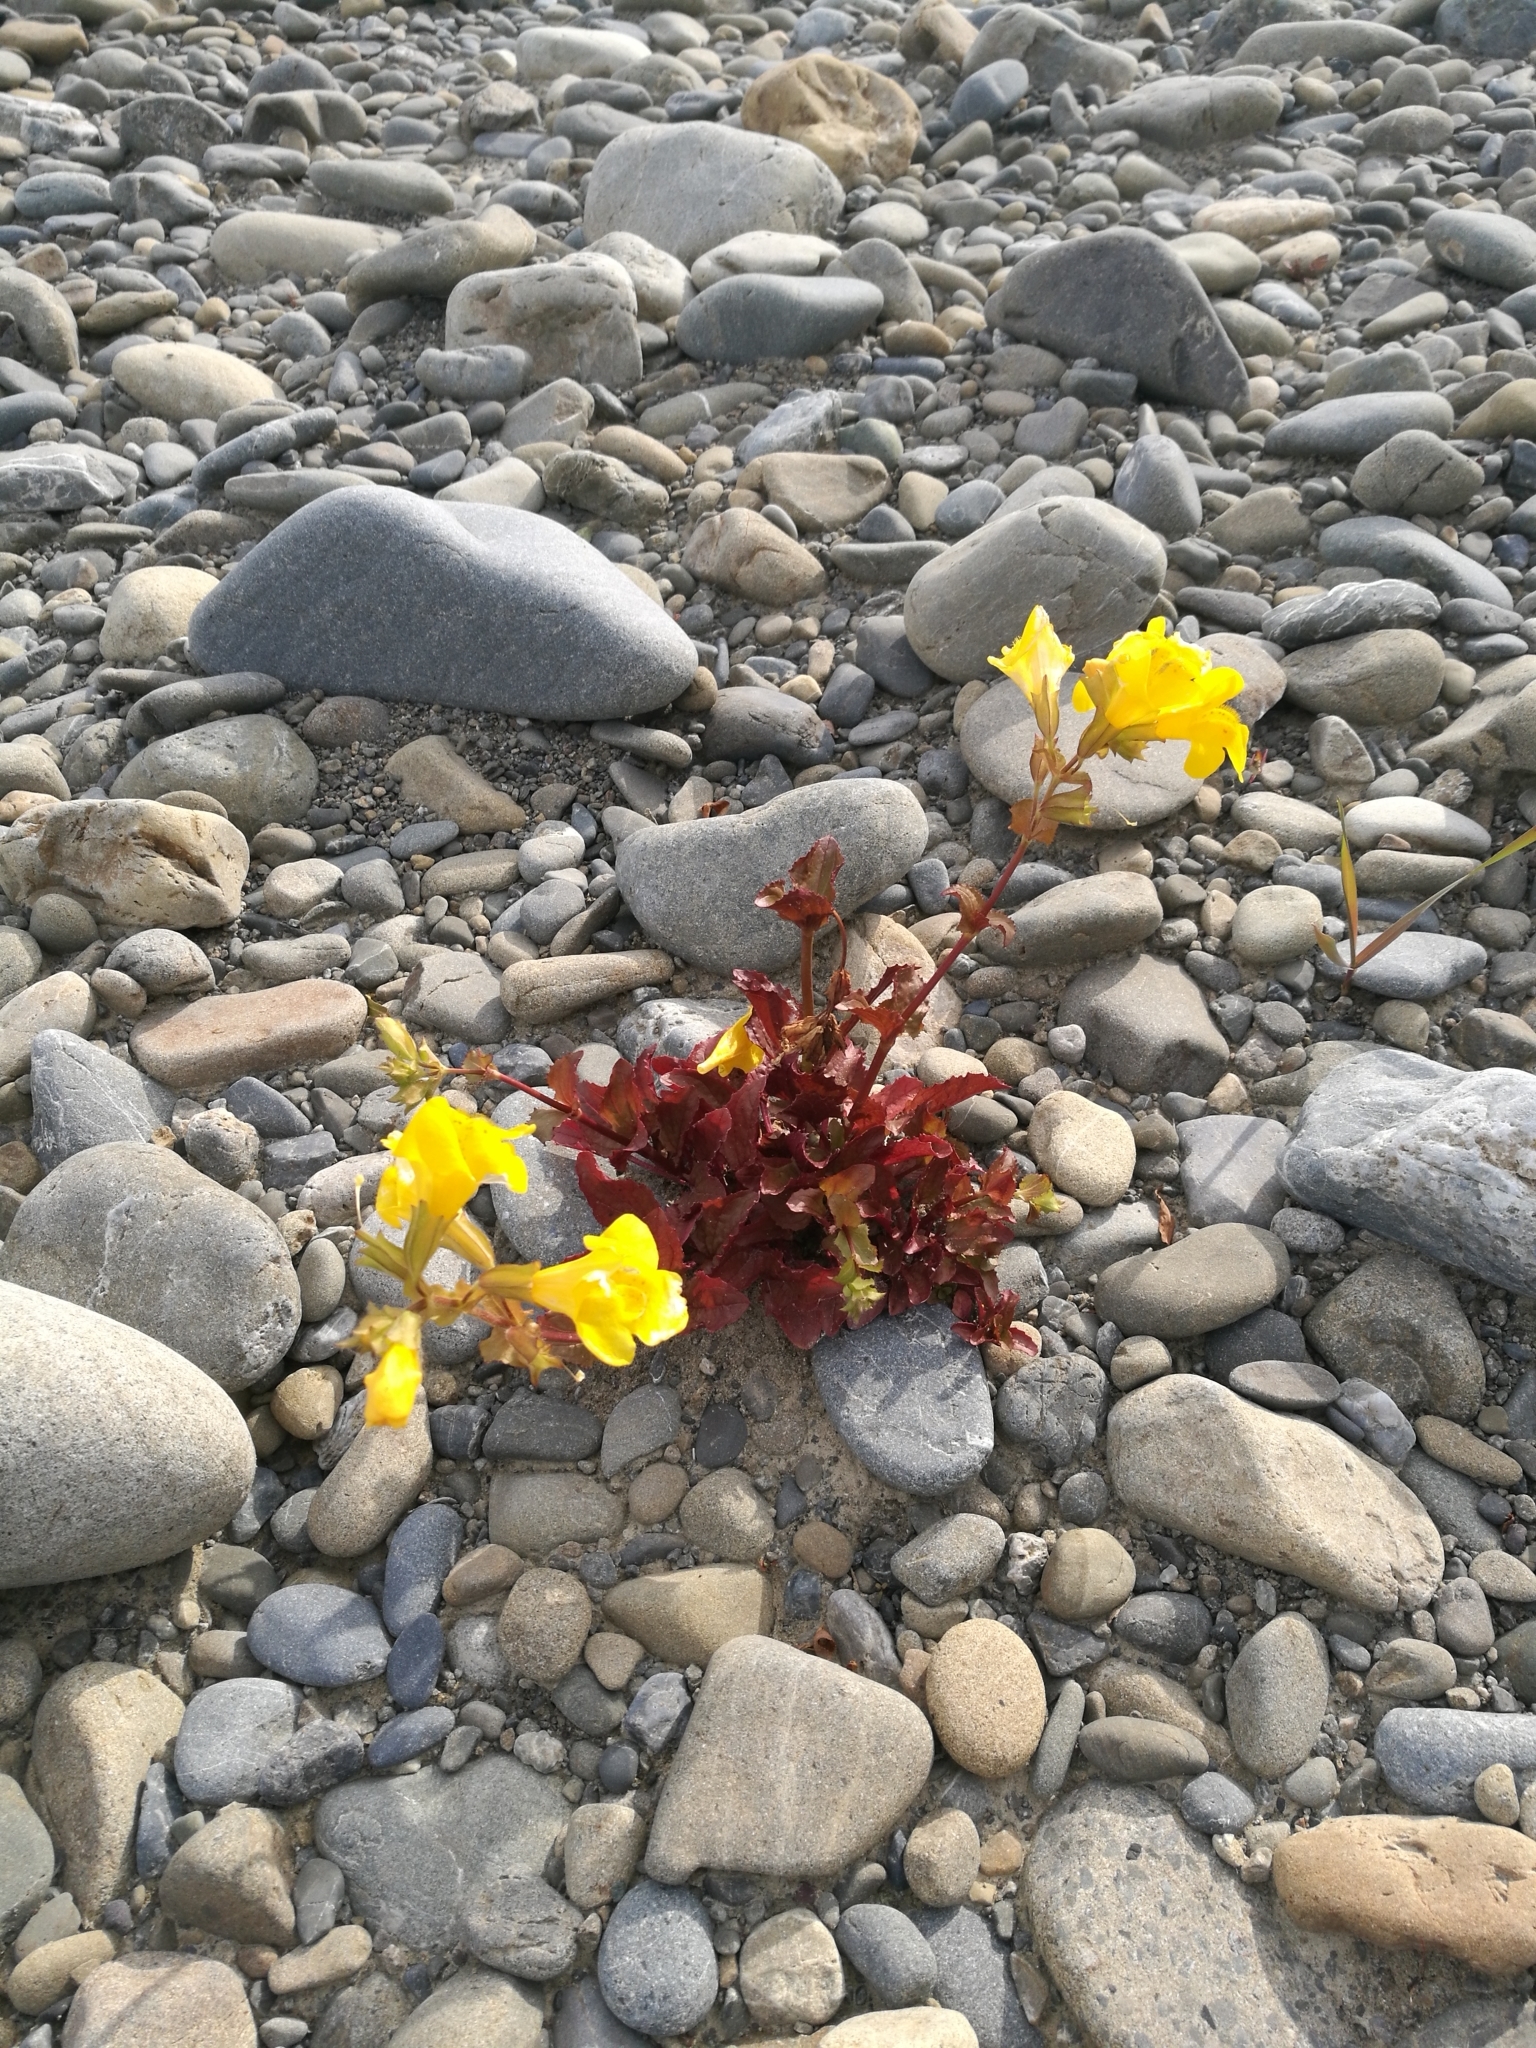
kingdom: Plantae
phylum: Tracheophyta
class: Magnoliopsida
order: Lamiales
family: Phrymaceae
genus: Erythranthe
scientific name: Erythranthe guttata
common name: Monkeyflower
